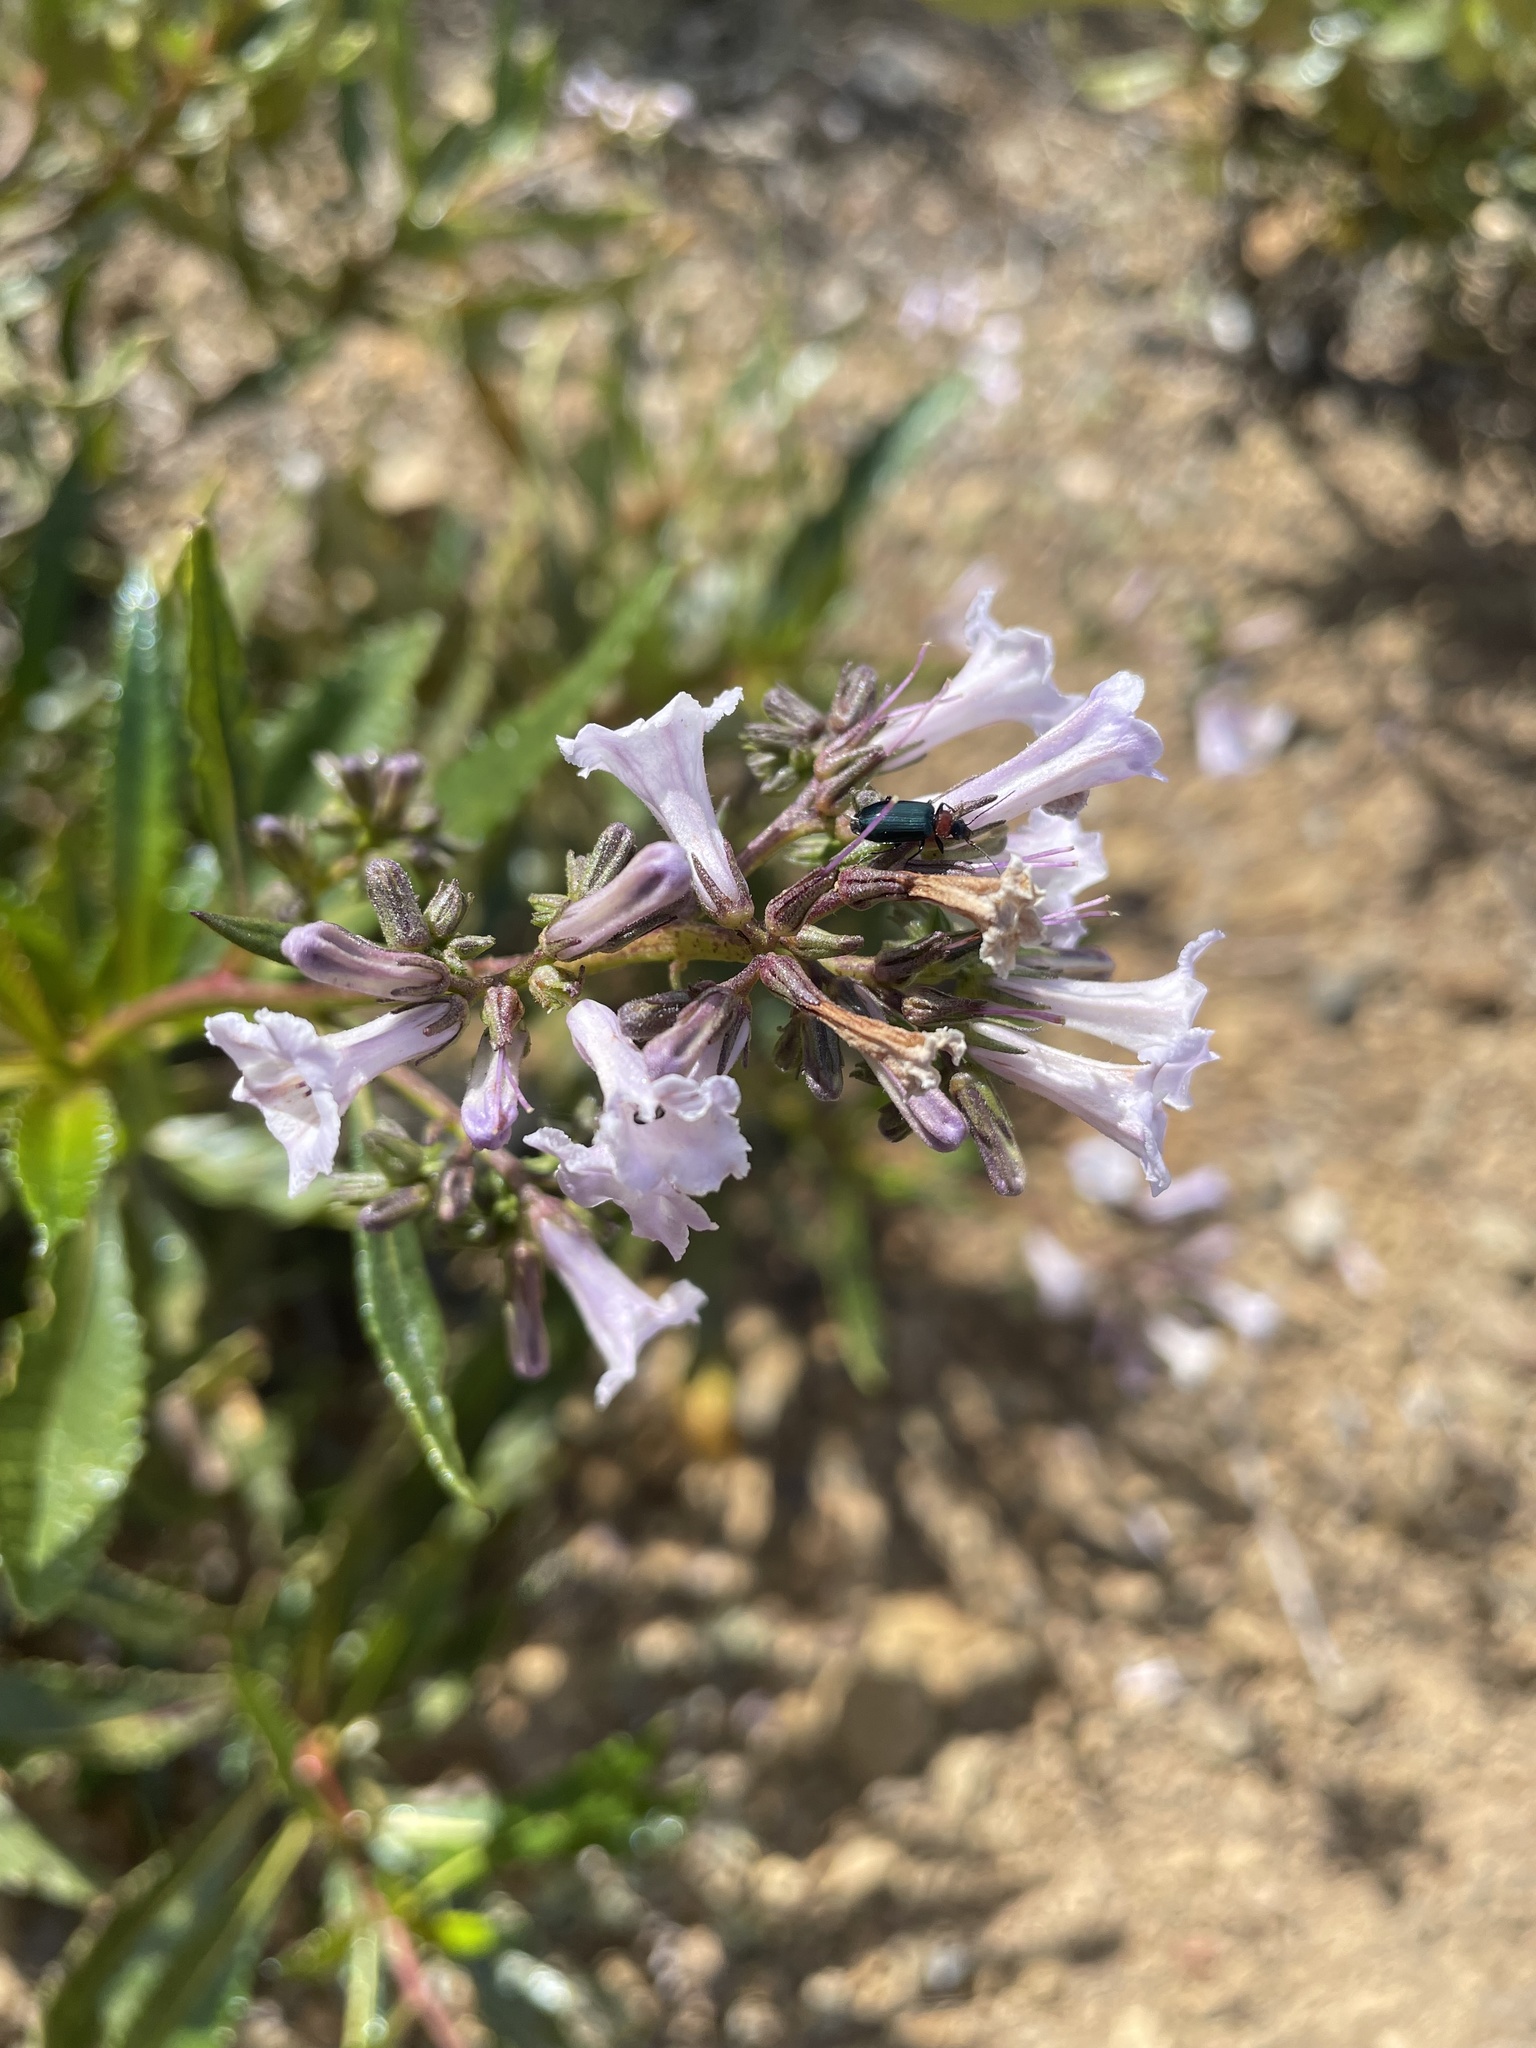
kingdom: Plantae
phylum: Tracheophyta
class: Magnoliopsida
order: Boraginales
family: Namaceae
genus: Eriodictyon
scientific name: Eriodictyon californicum
